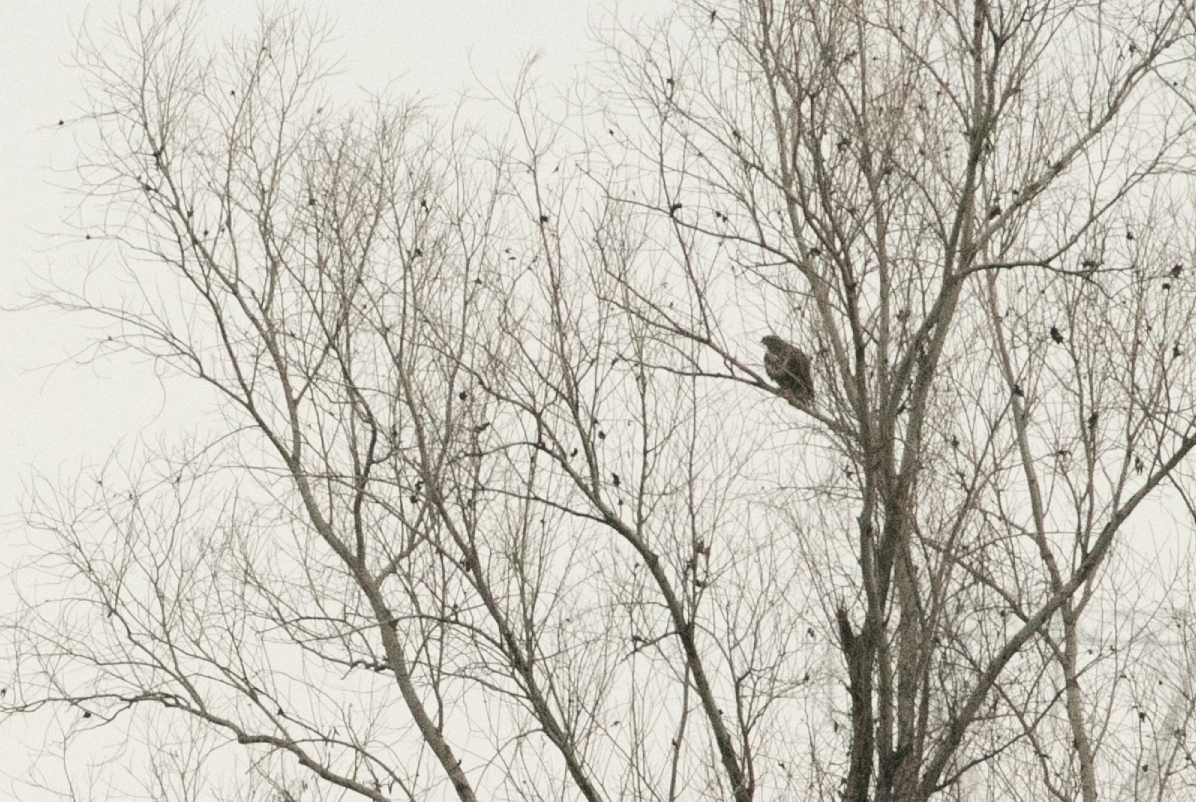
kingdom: Animalia
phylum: Chordata
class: Aves
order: Accipitriformes
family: Accipitridae
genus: Buteo
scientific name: Buteo buteo
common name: Common buzzard
